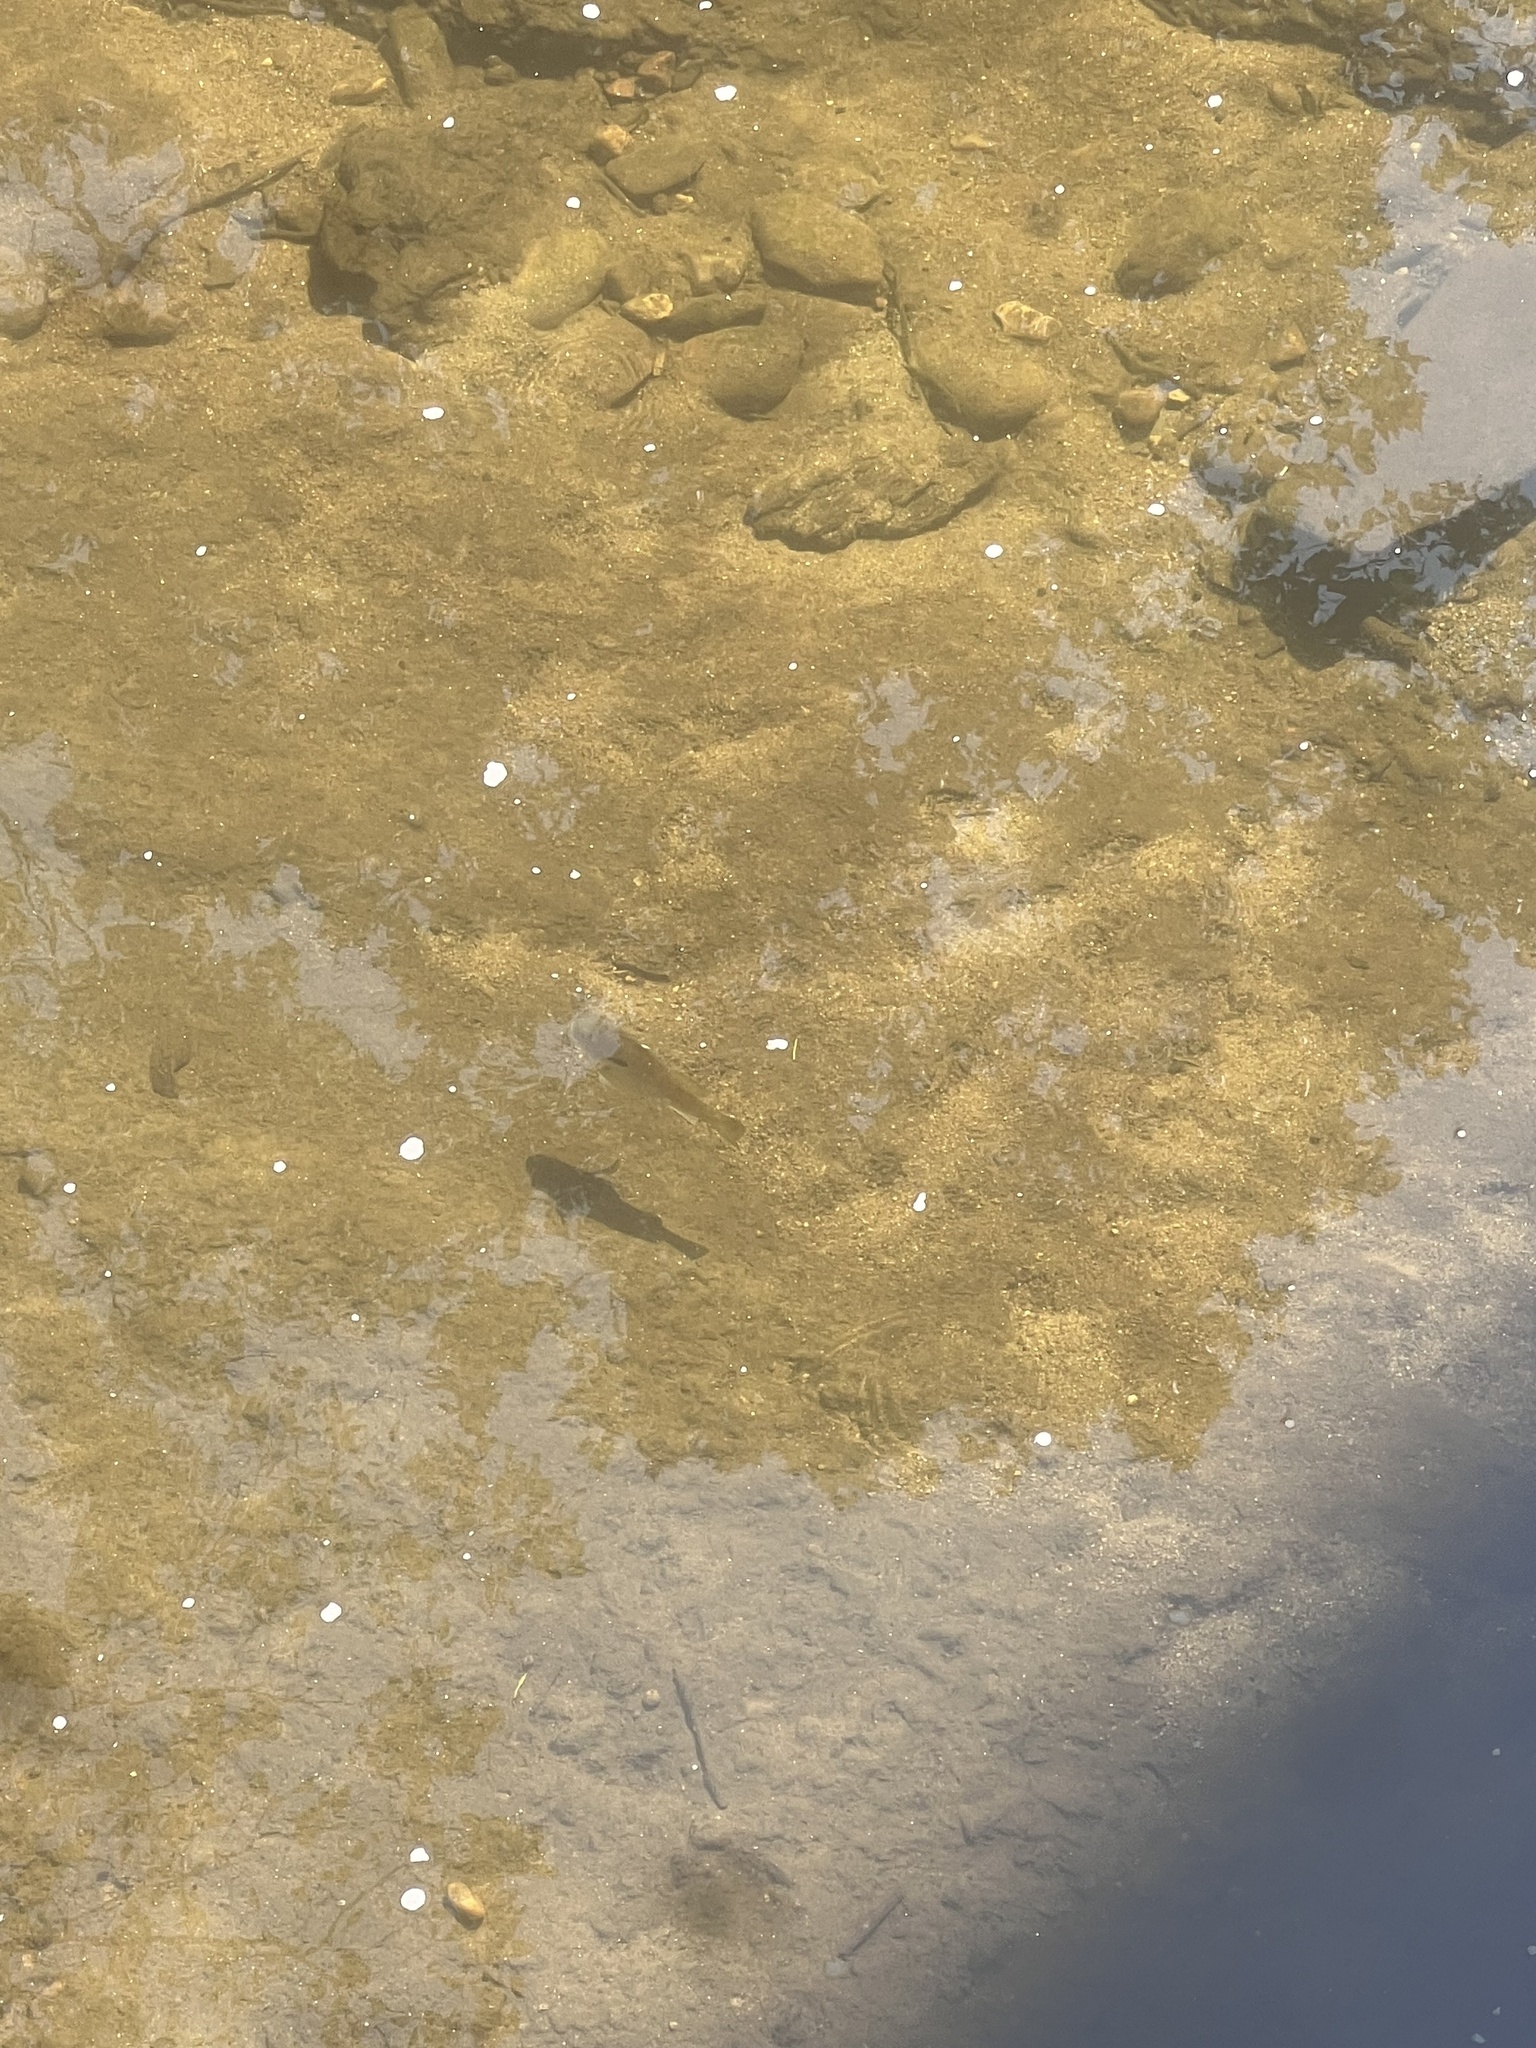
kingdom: Animalia
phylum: Chordata
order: Perciformes
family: Centrarchidae
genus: Lepomis
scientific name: Lepomis auritus
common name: Redbreast sunfish
